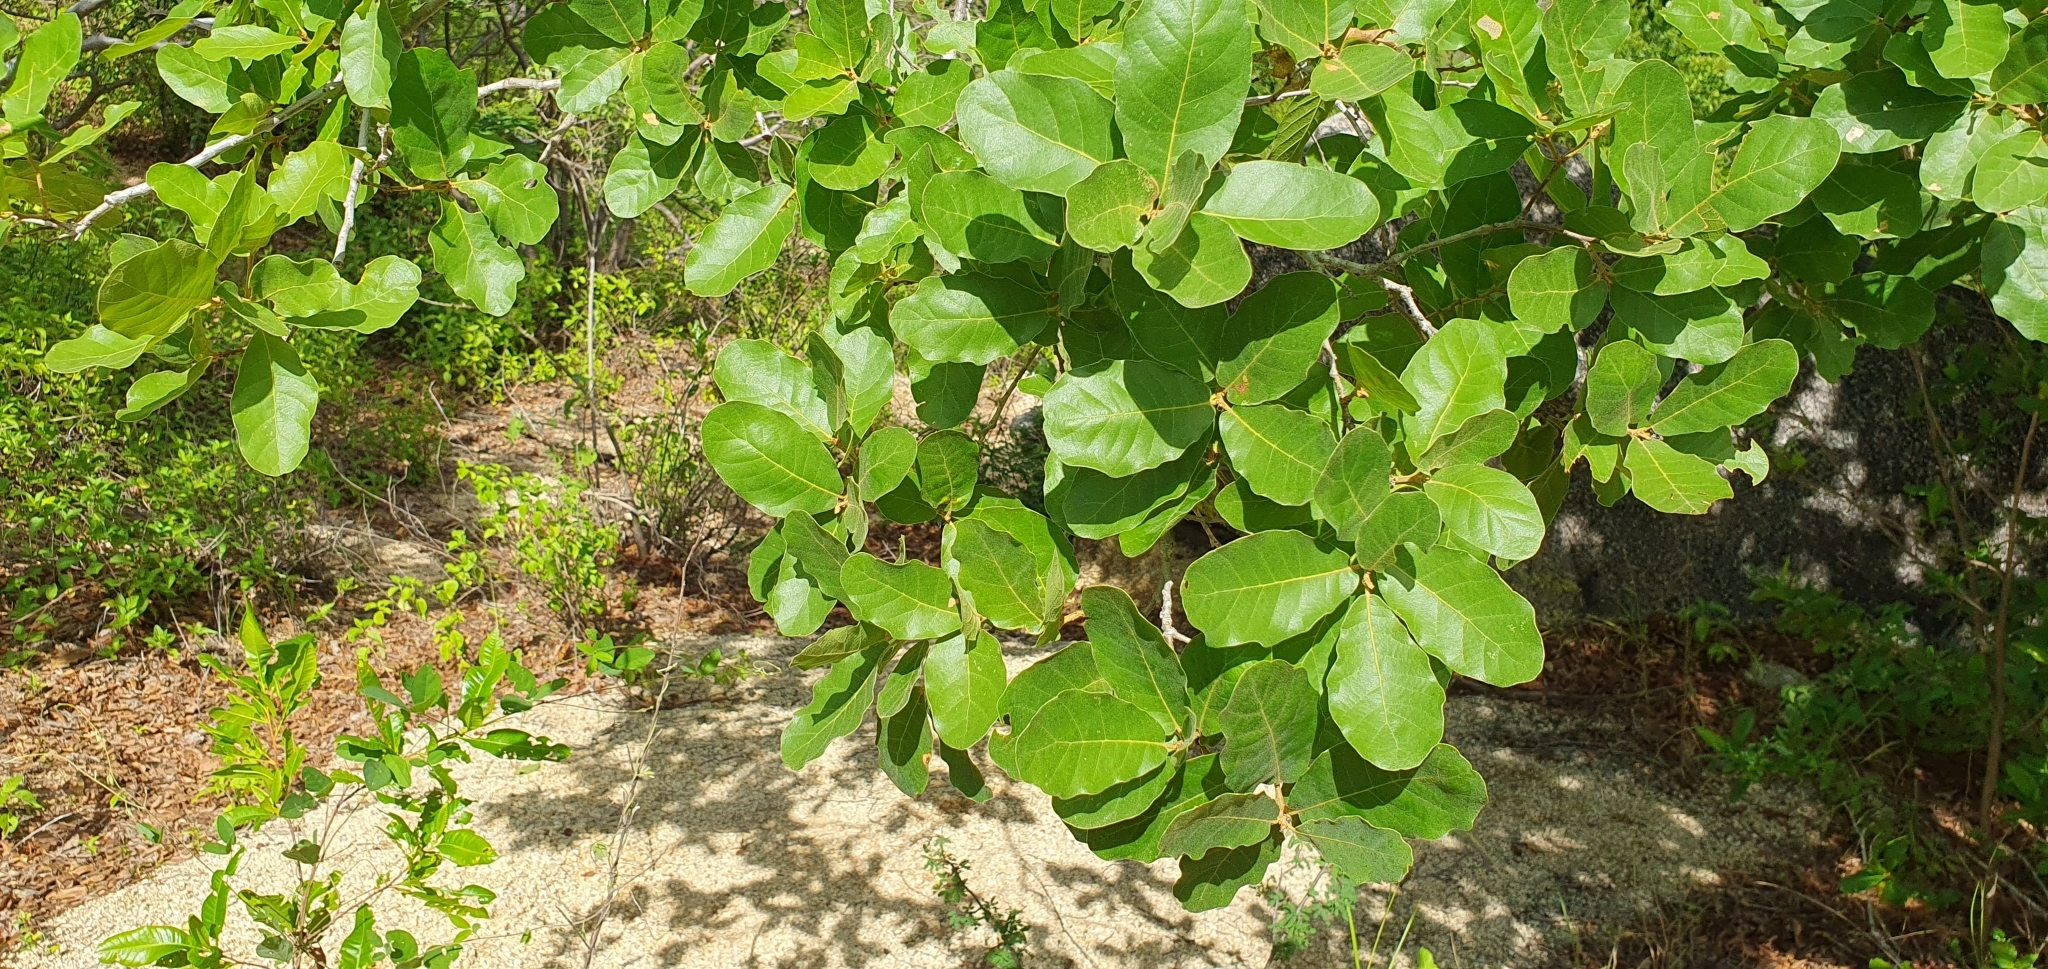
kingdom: Plantae
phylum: Tracheophyta
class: Magnoliopsida
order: Fagales
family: Fagaceae
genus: Quercus
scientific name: Quercus tuberculata
